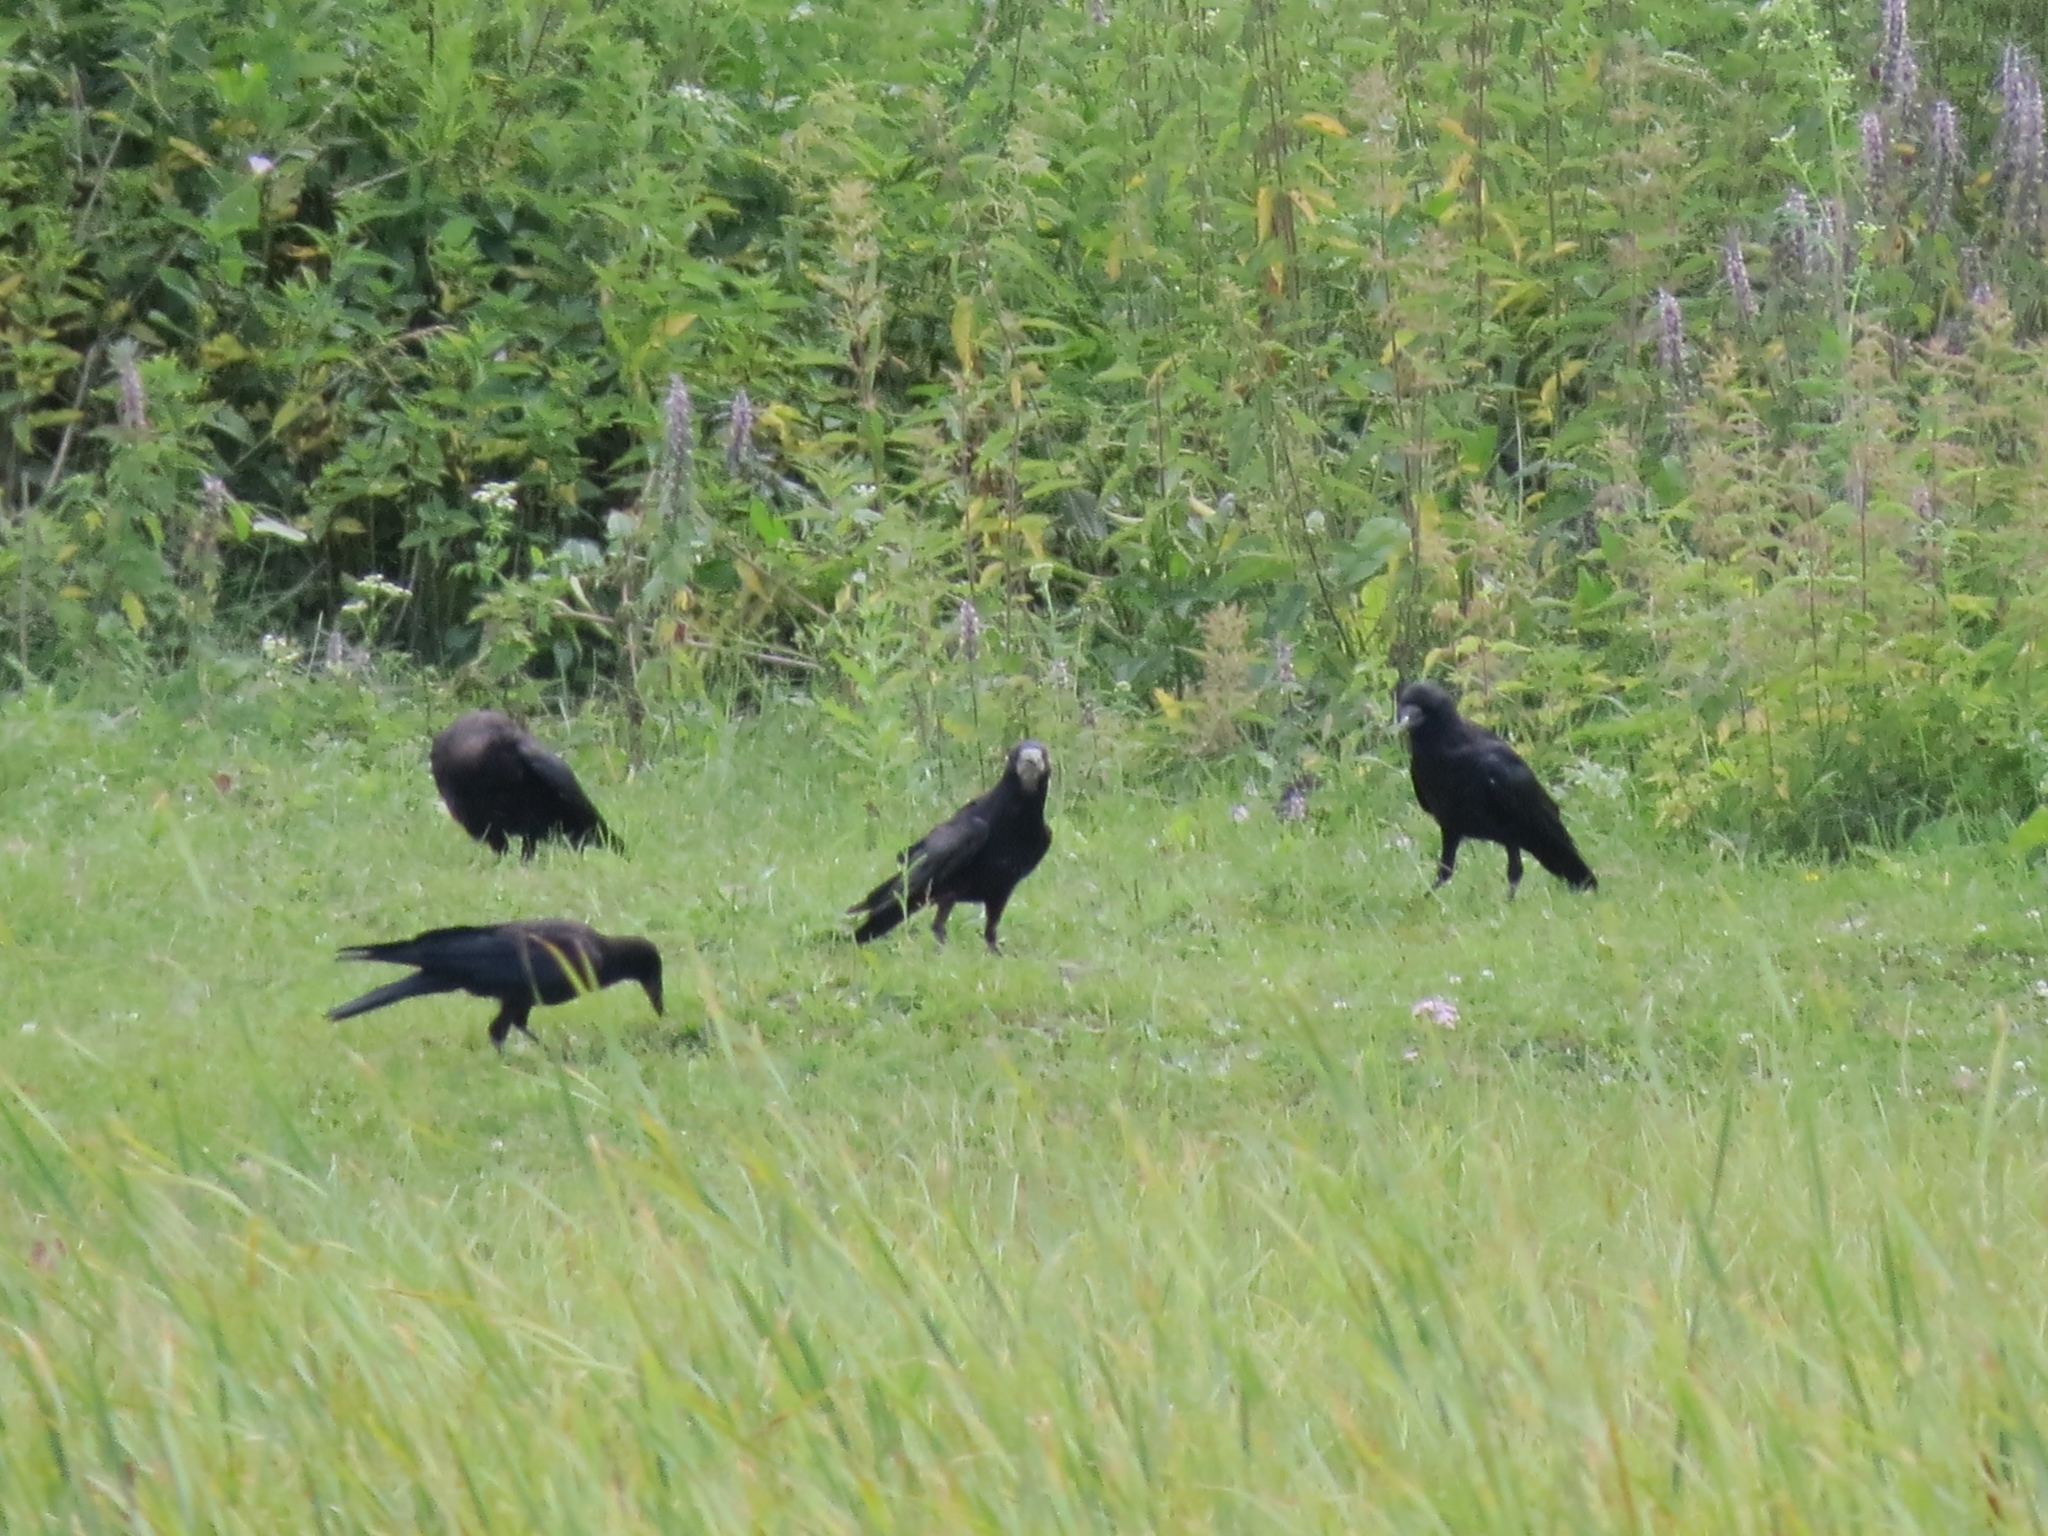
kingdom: Animalia
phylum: Chordata
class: Aves
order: Passeriformes
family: Corvidae
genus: Corvus
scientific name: Corvus frugilegus
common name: Rook
